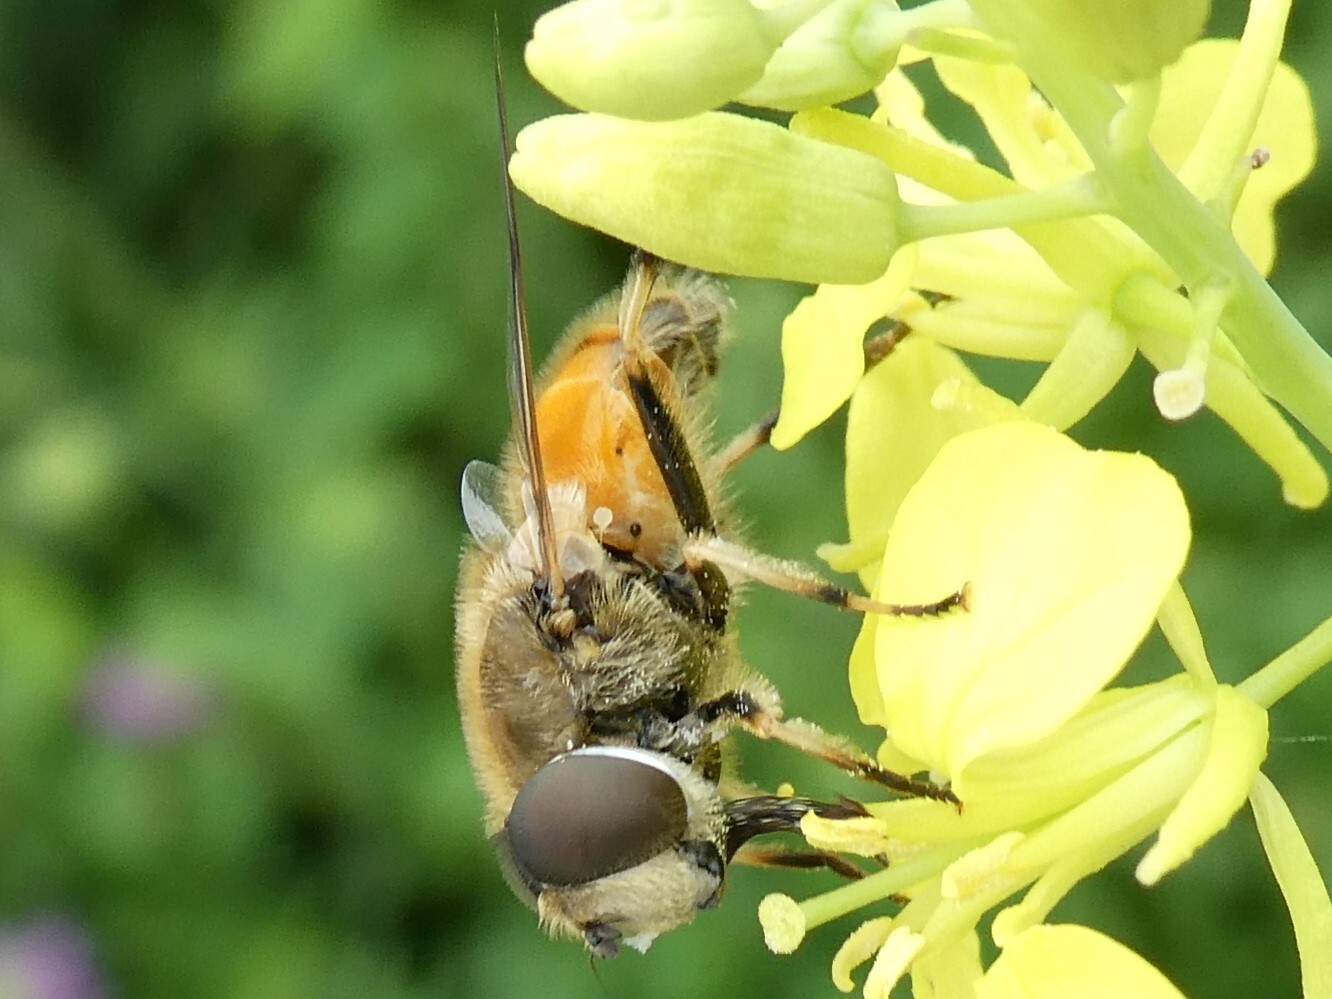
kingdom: Animalia
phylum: Arthropoda
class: Insecta
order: Diptera
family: Syrphidae
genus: Eristalis
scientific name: Eristalis arbustorum
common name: Hover fly
